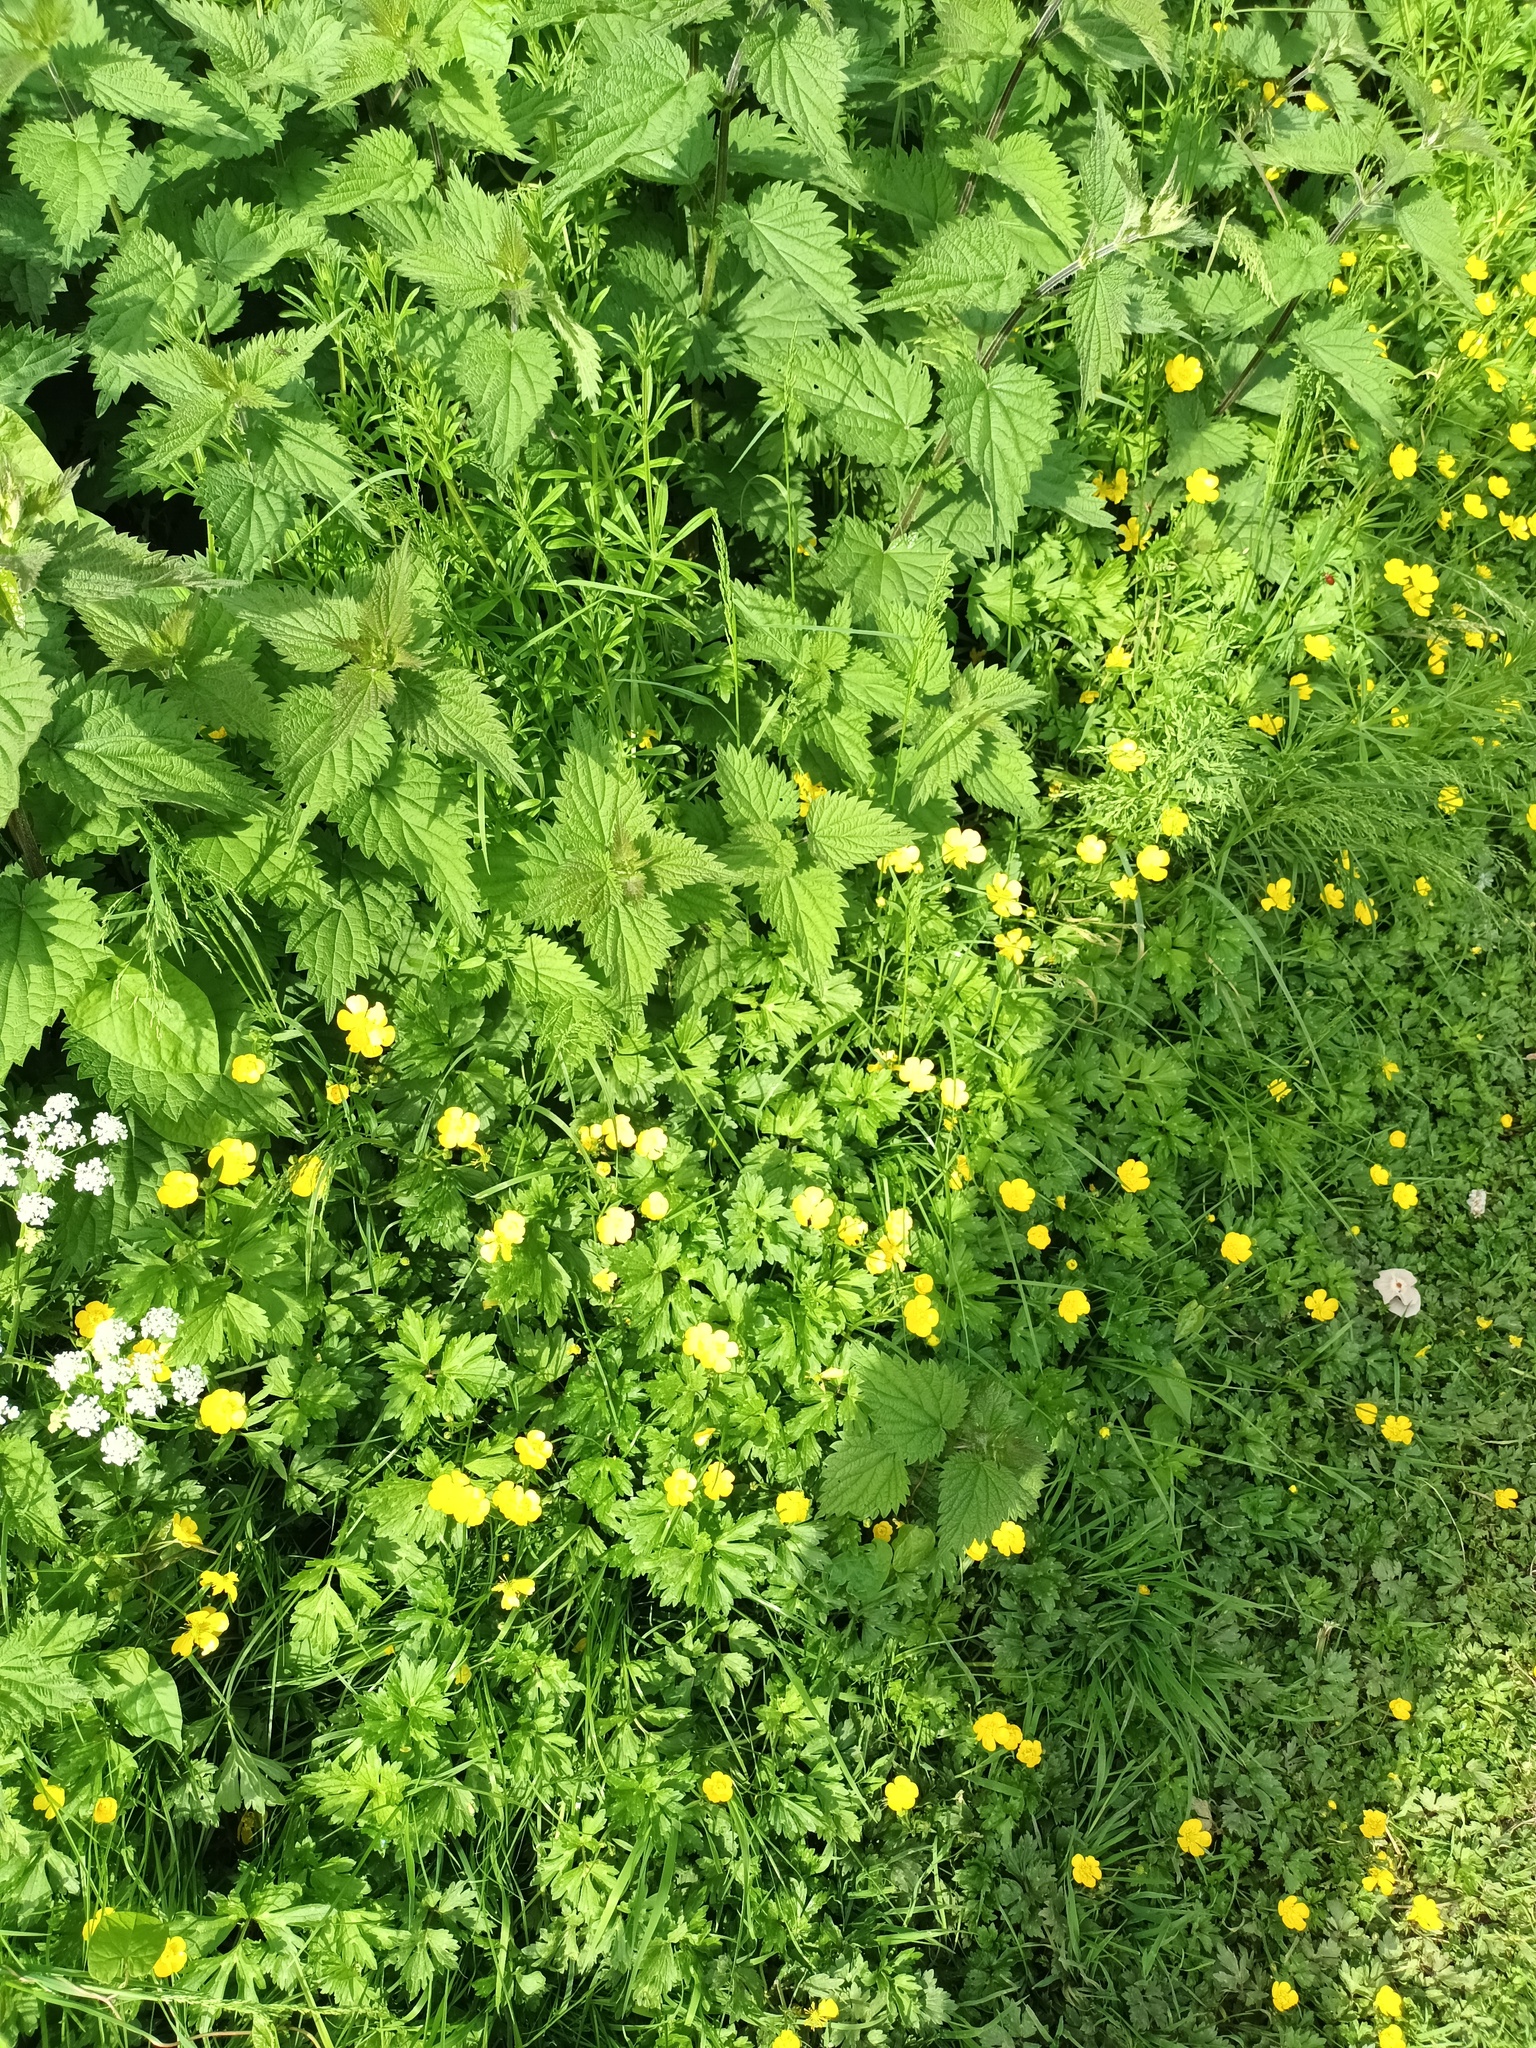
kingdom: Plantae
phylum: Tracheophyta
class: Magnoliopsida
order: Ranunculales
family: Ranunculaceae
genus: Ranunculus
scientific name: Ranunculus repens
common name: Creeping buttercup
